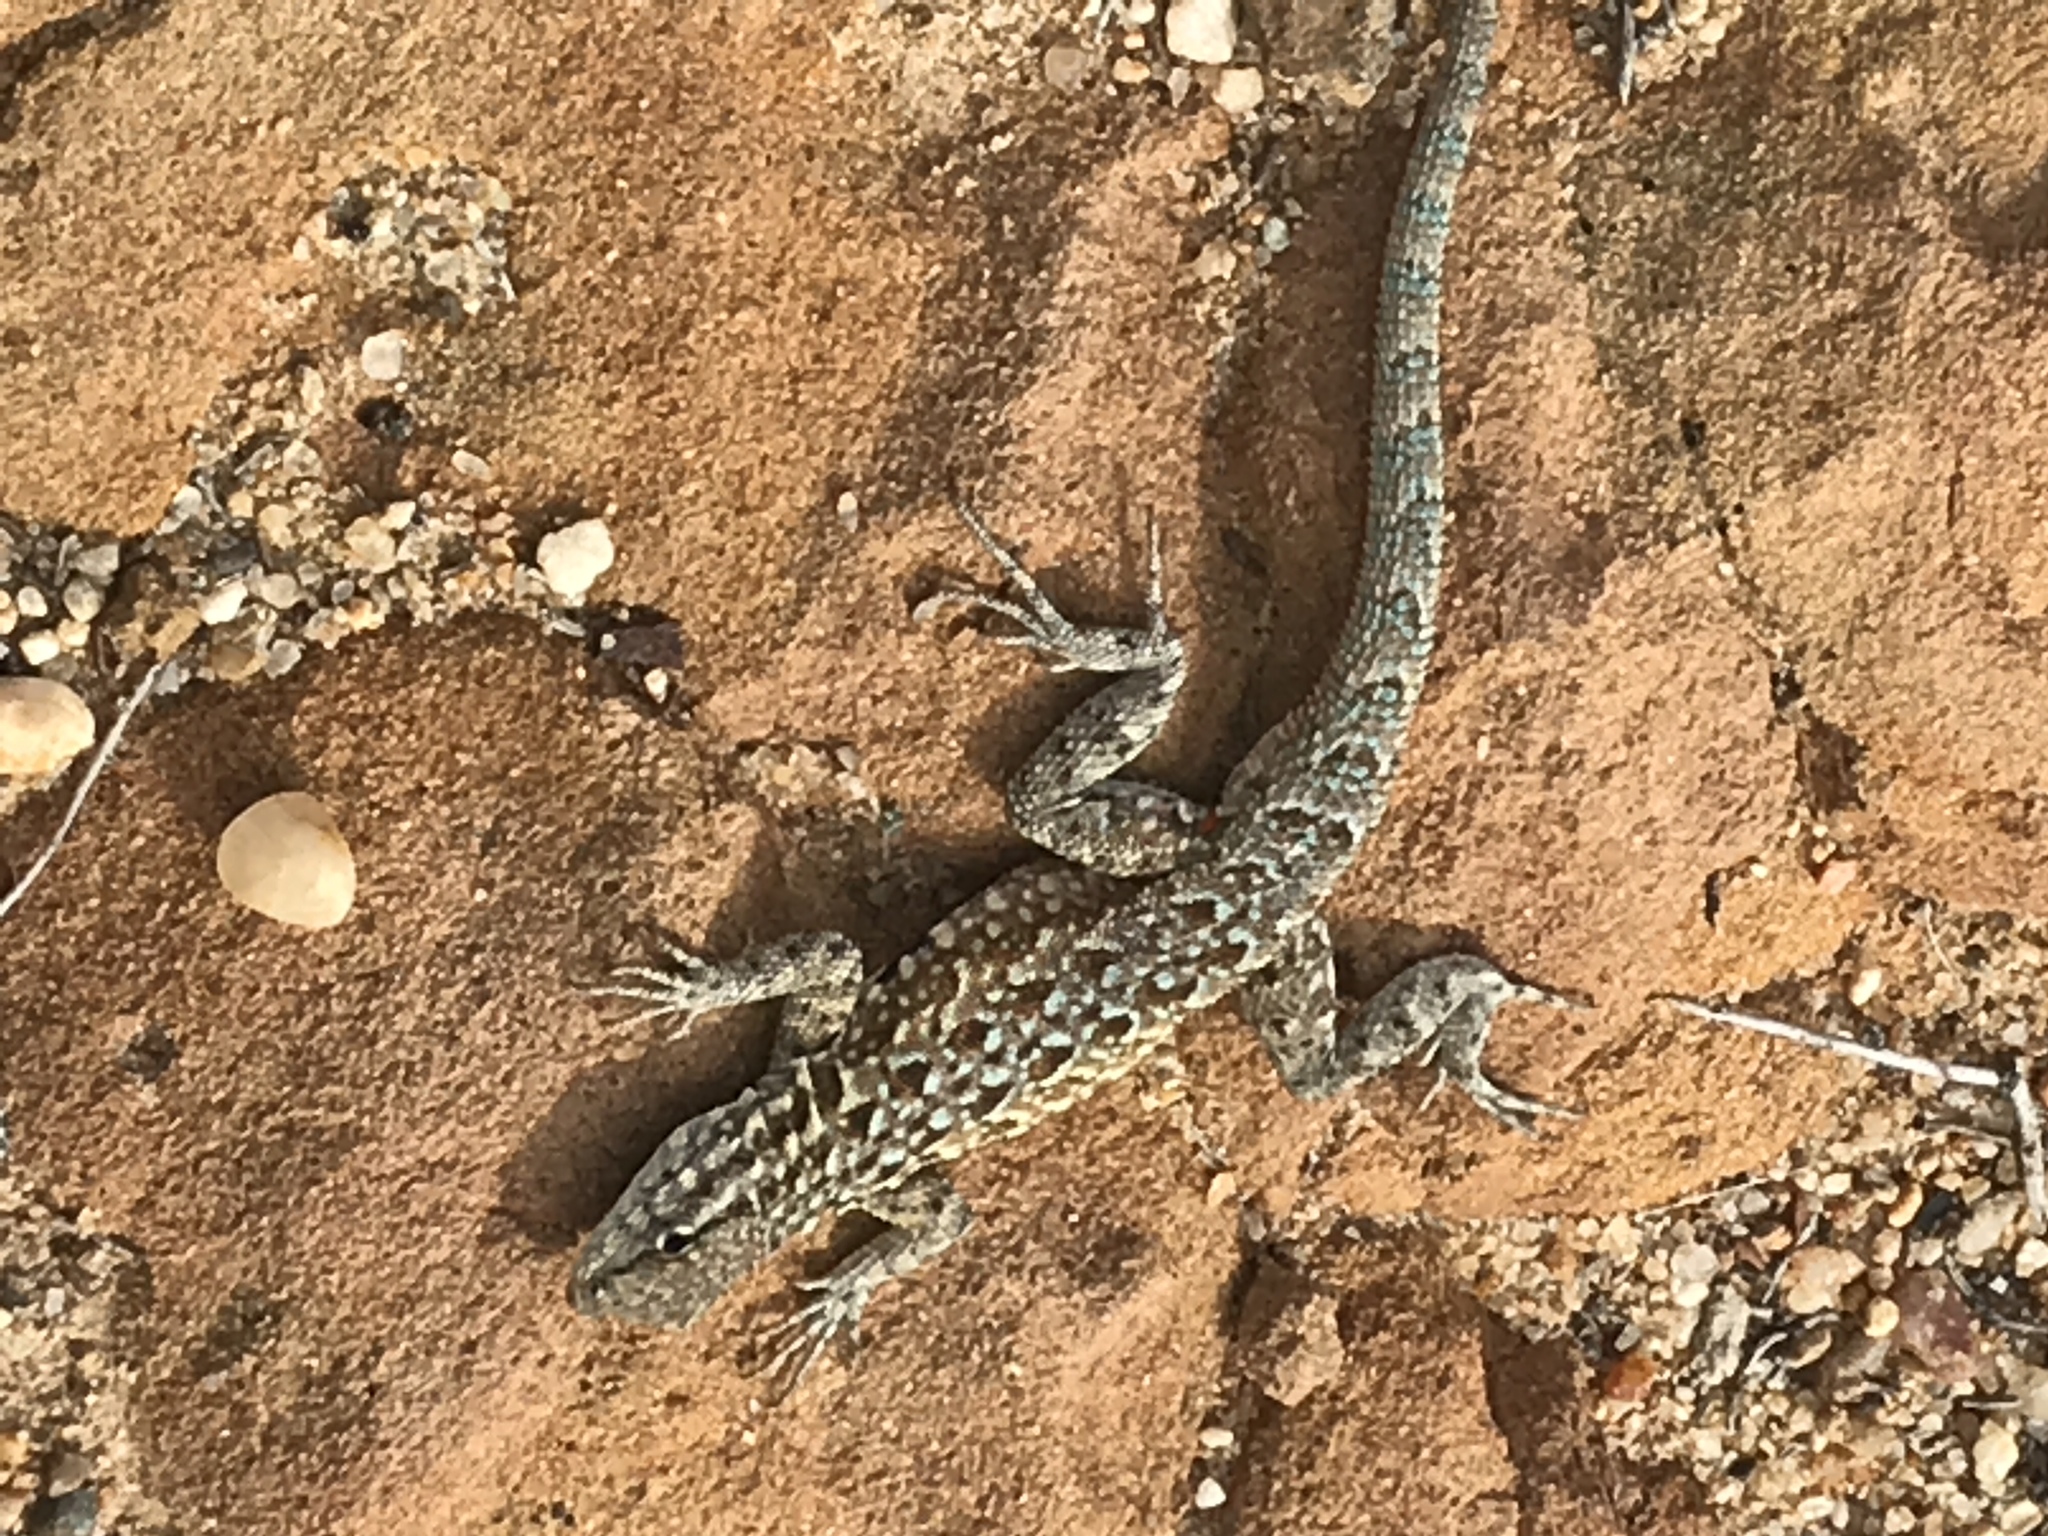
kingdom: Animalia
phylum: Chordata
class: Squamata
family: Phrynosomatidae
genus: Uta
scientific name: Uta stansburiana
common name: Side-blotched lizard
